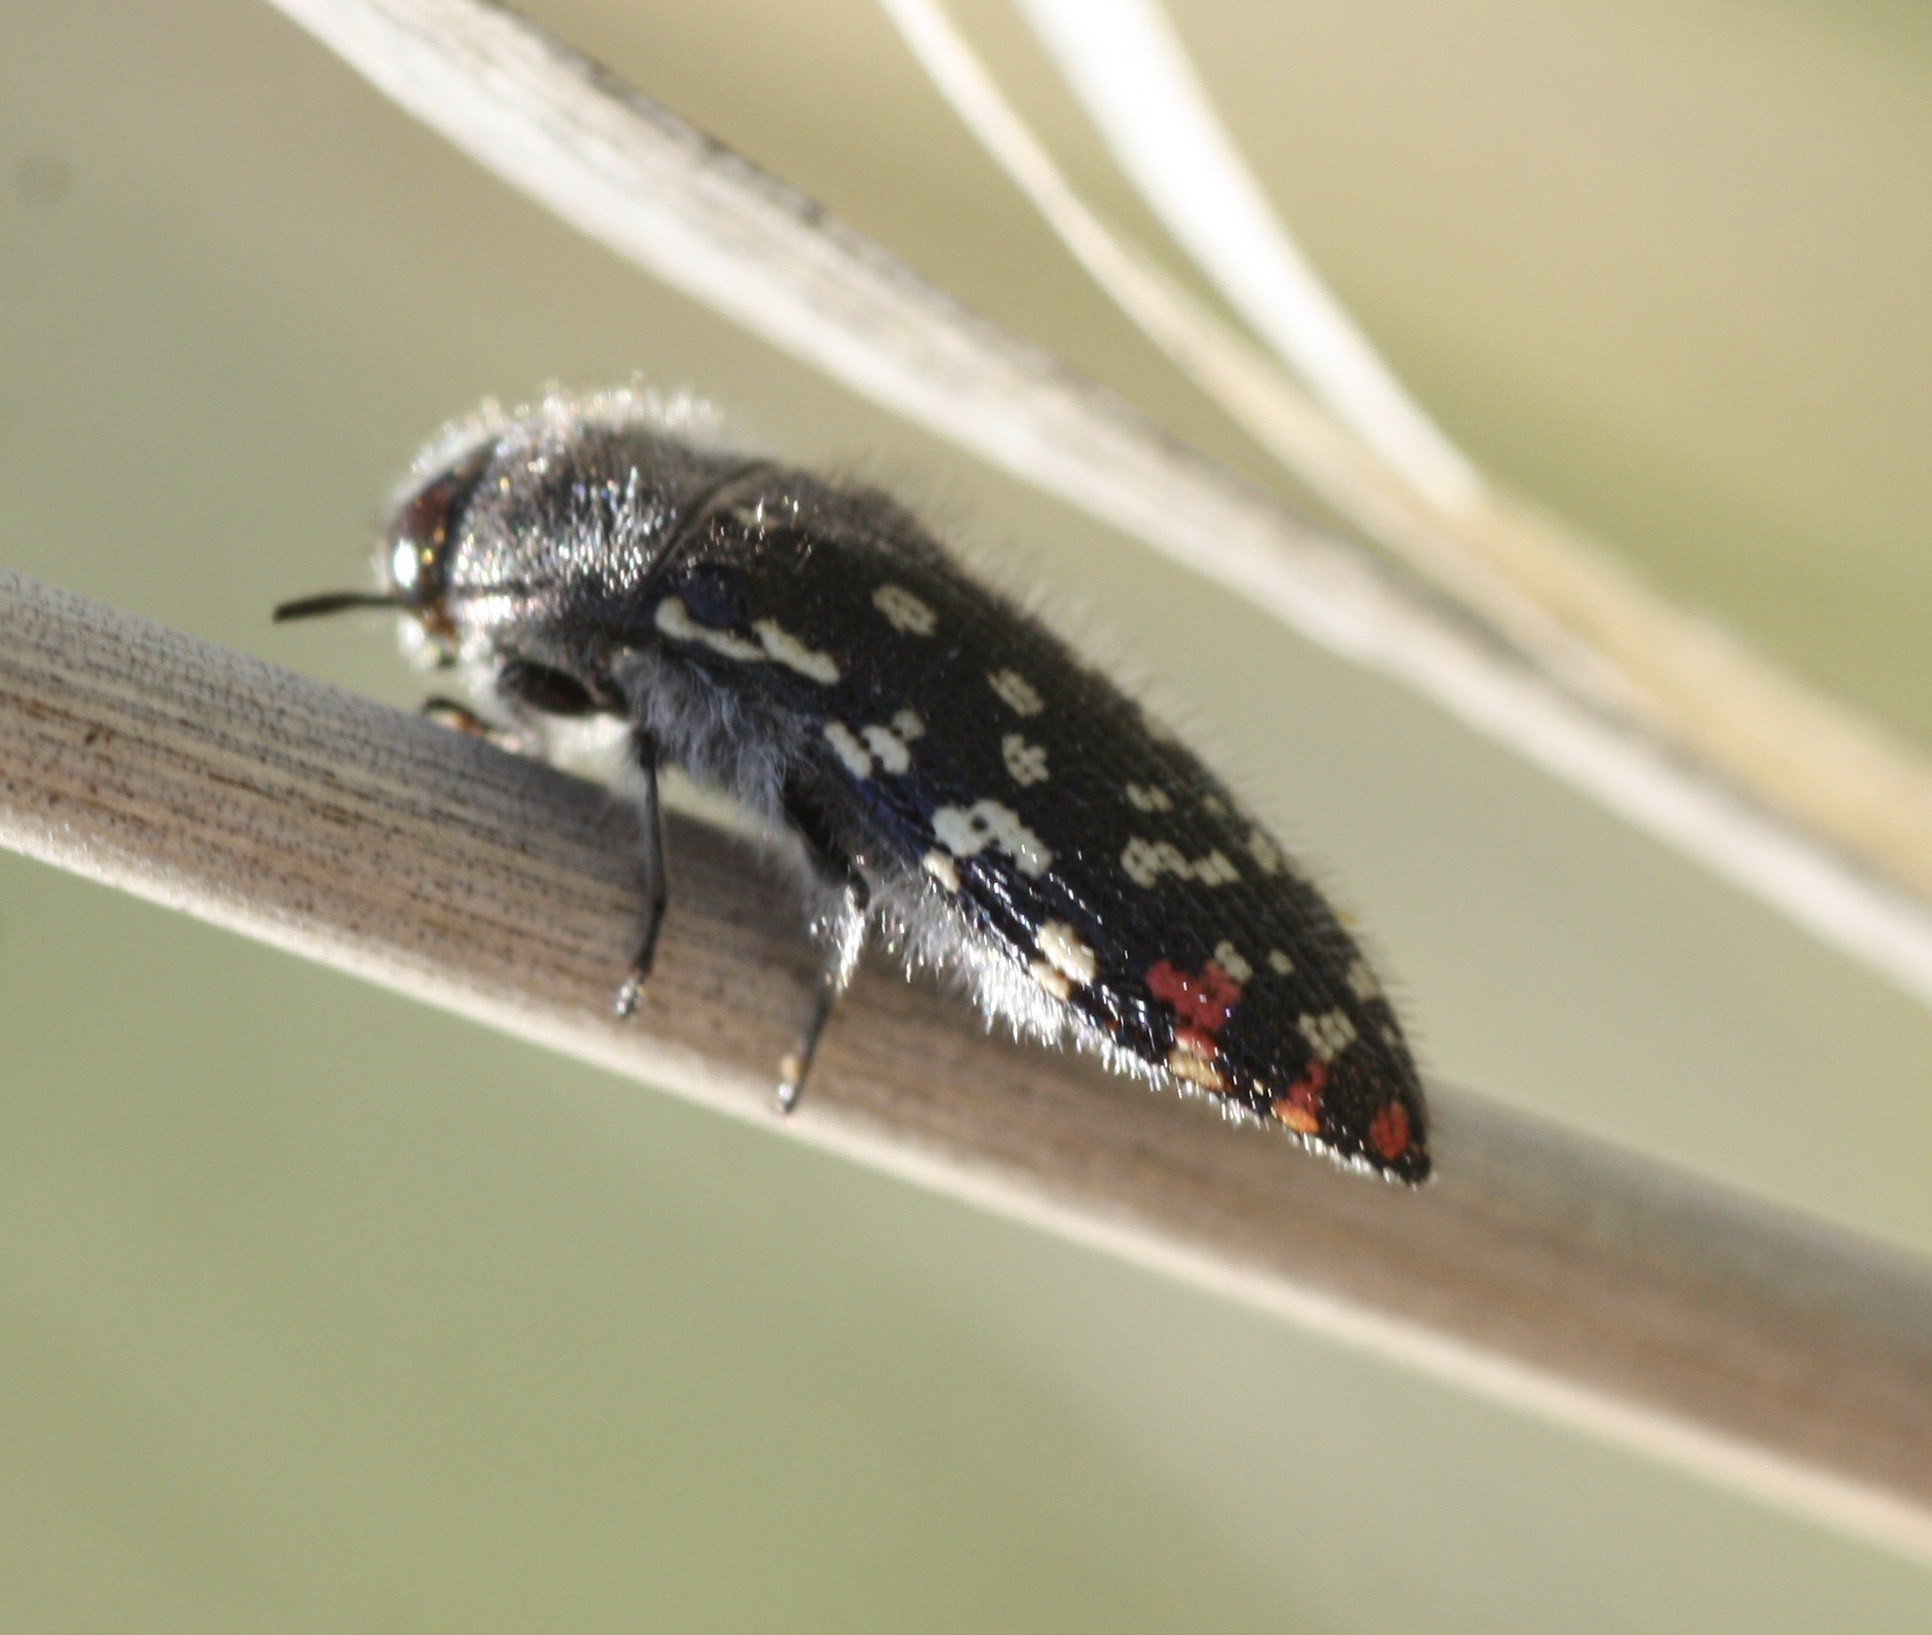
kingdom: Animalia
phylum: Arthropoda
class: Insecta
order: Coleoptera
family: Buprestidae
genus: Acmaeodera
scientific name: Acmaeodera rubronotata
